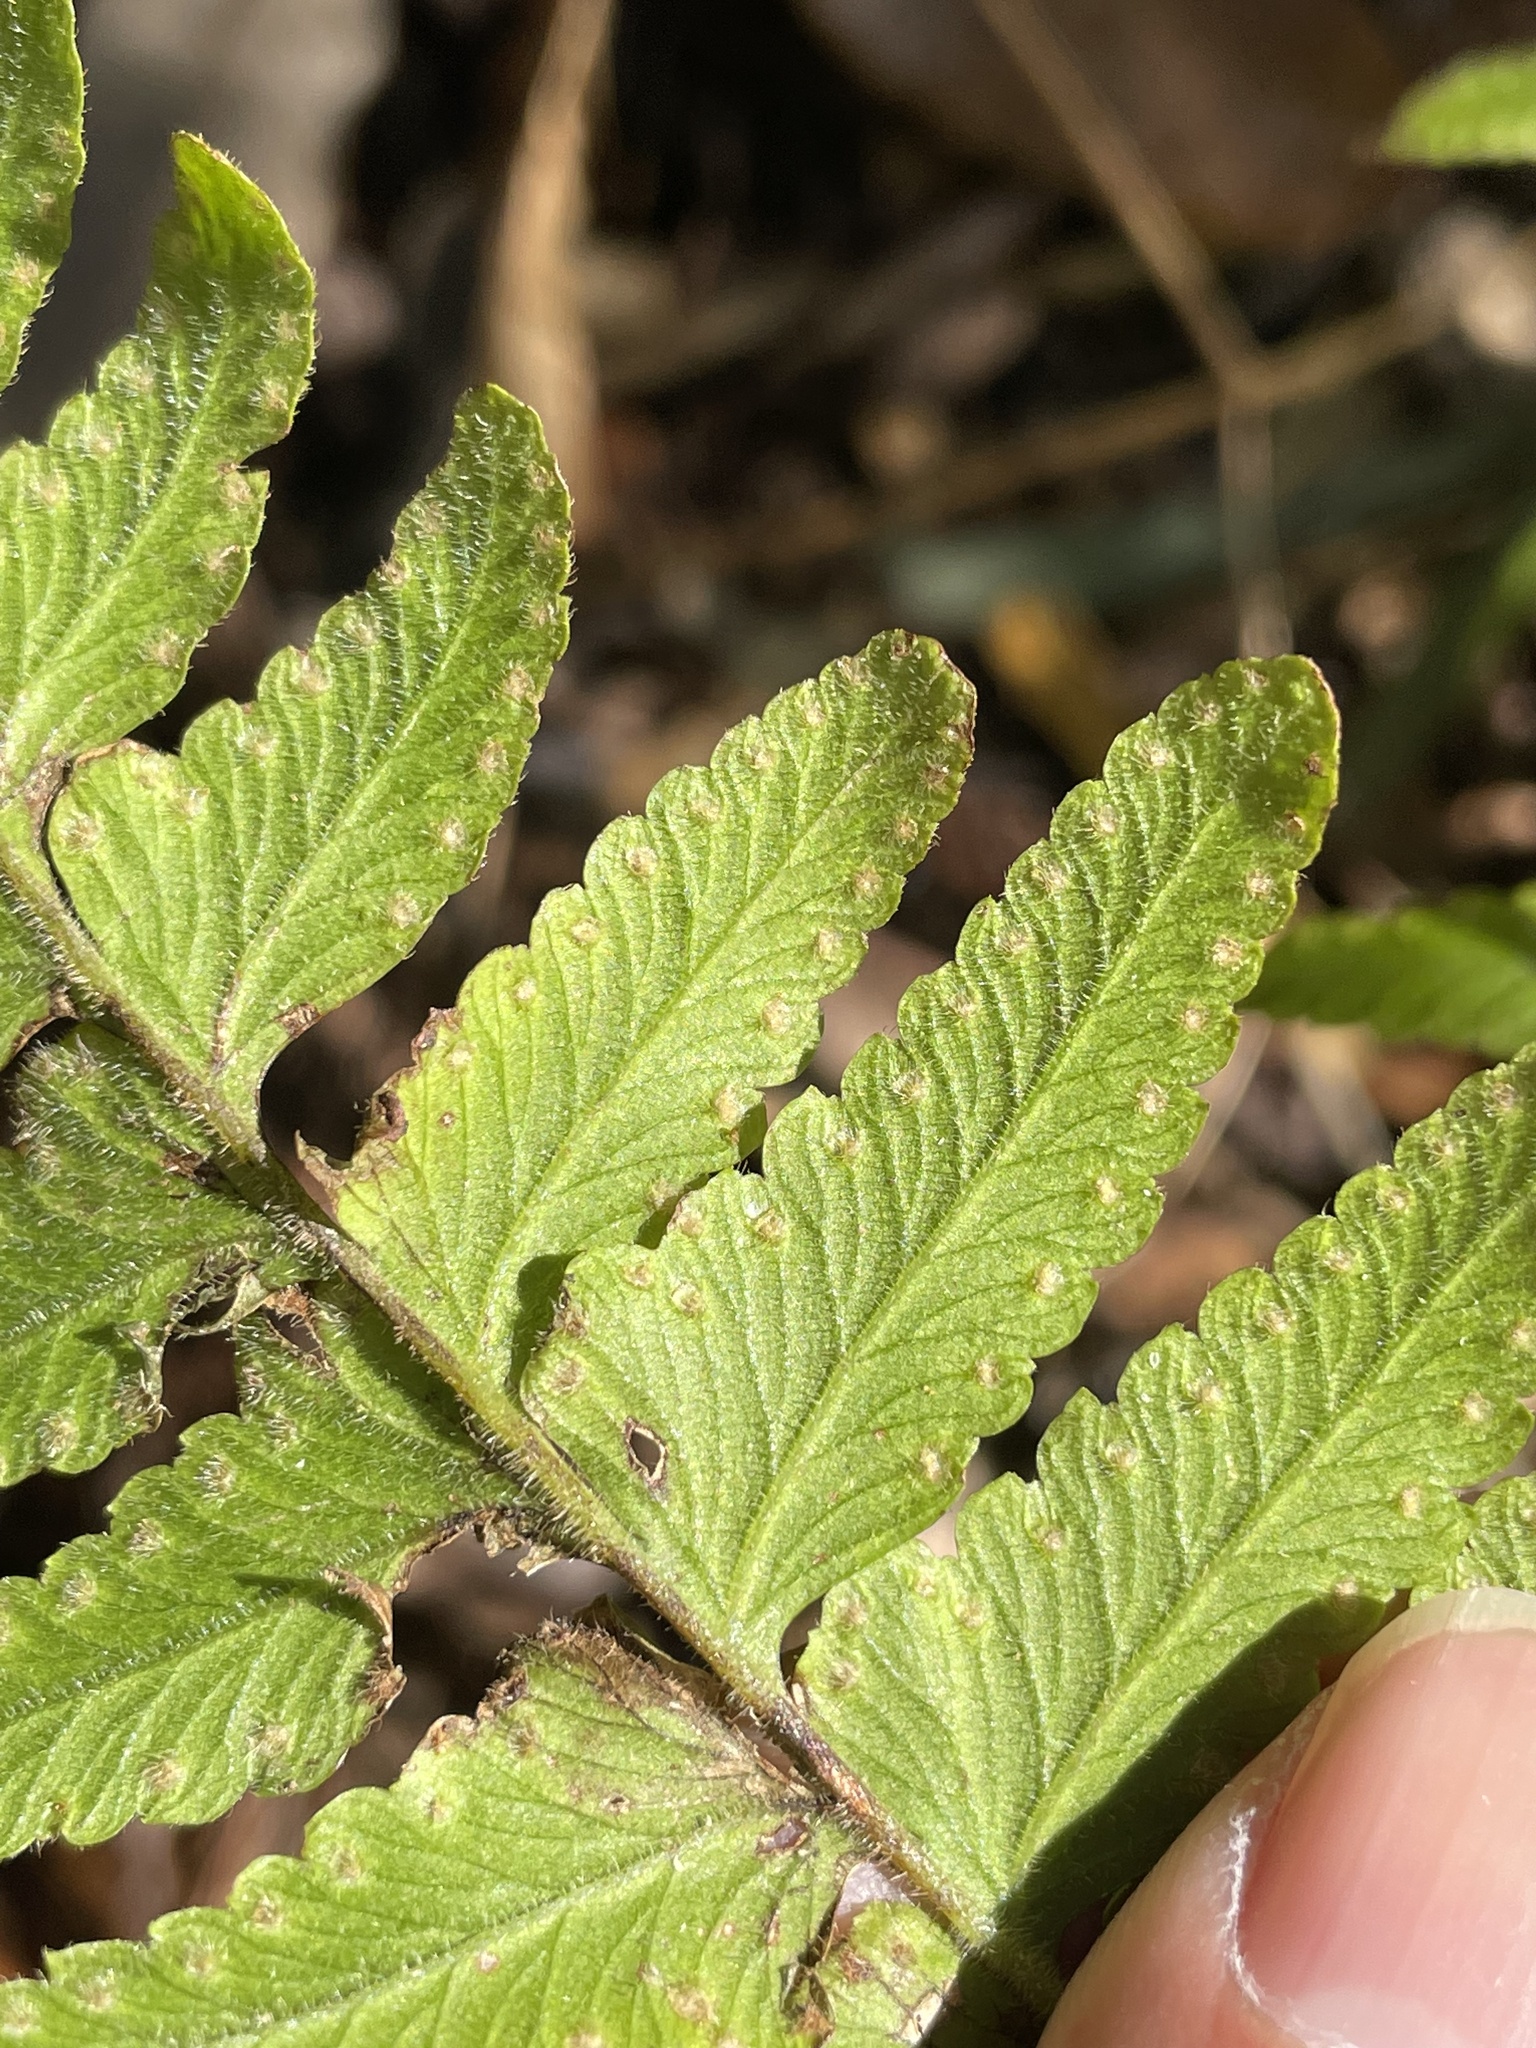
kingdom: Plantae
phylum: Tracheophyta
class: Polypodiopsida
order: Polypodiales
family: Dennstaedtiaceae
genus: Microlepia
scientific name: Microlepia marginata
